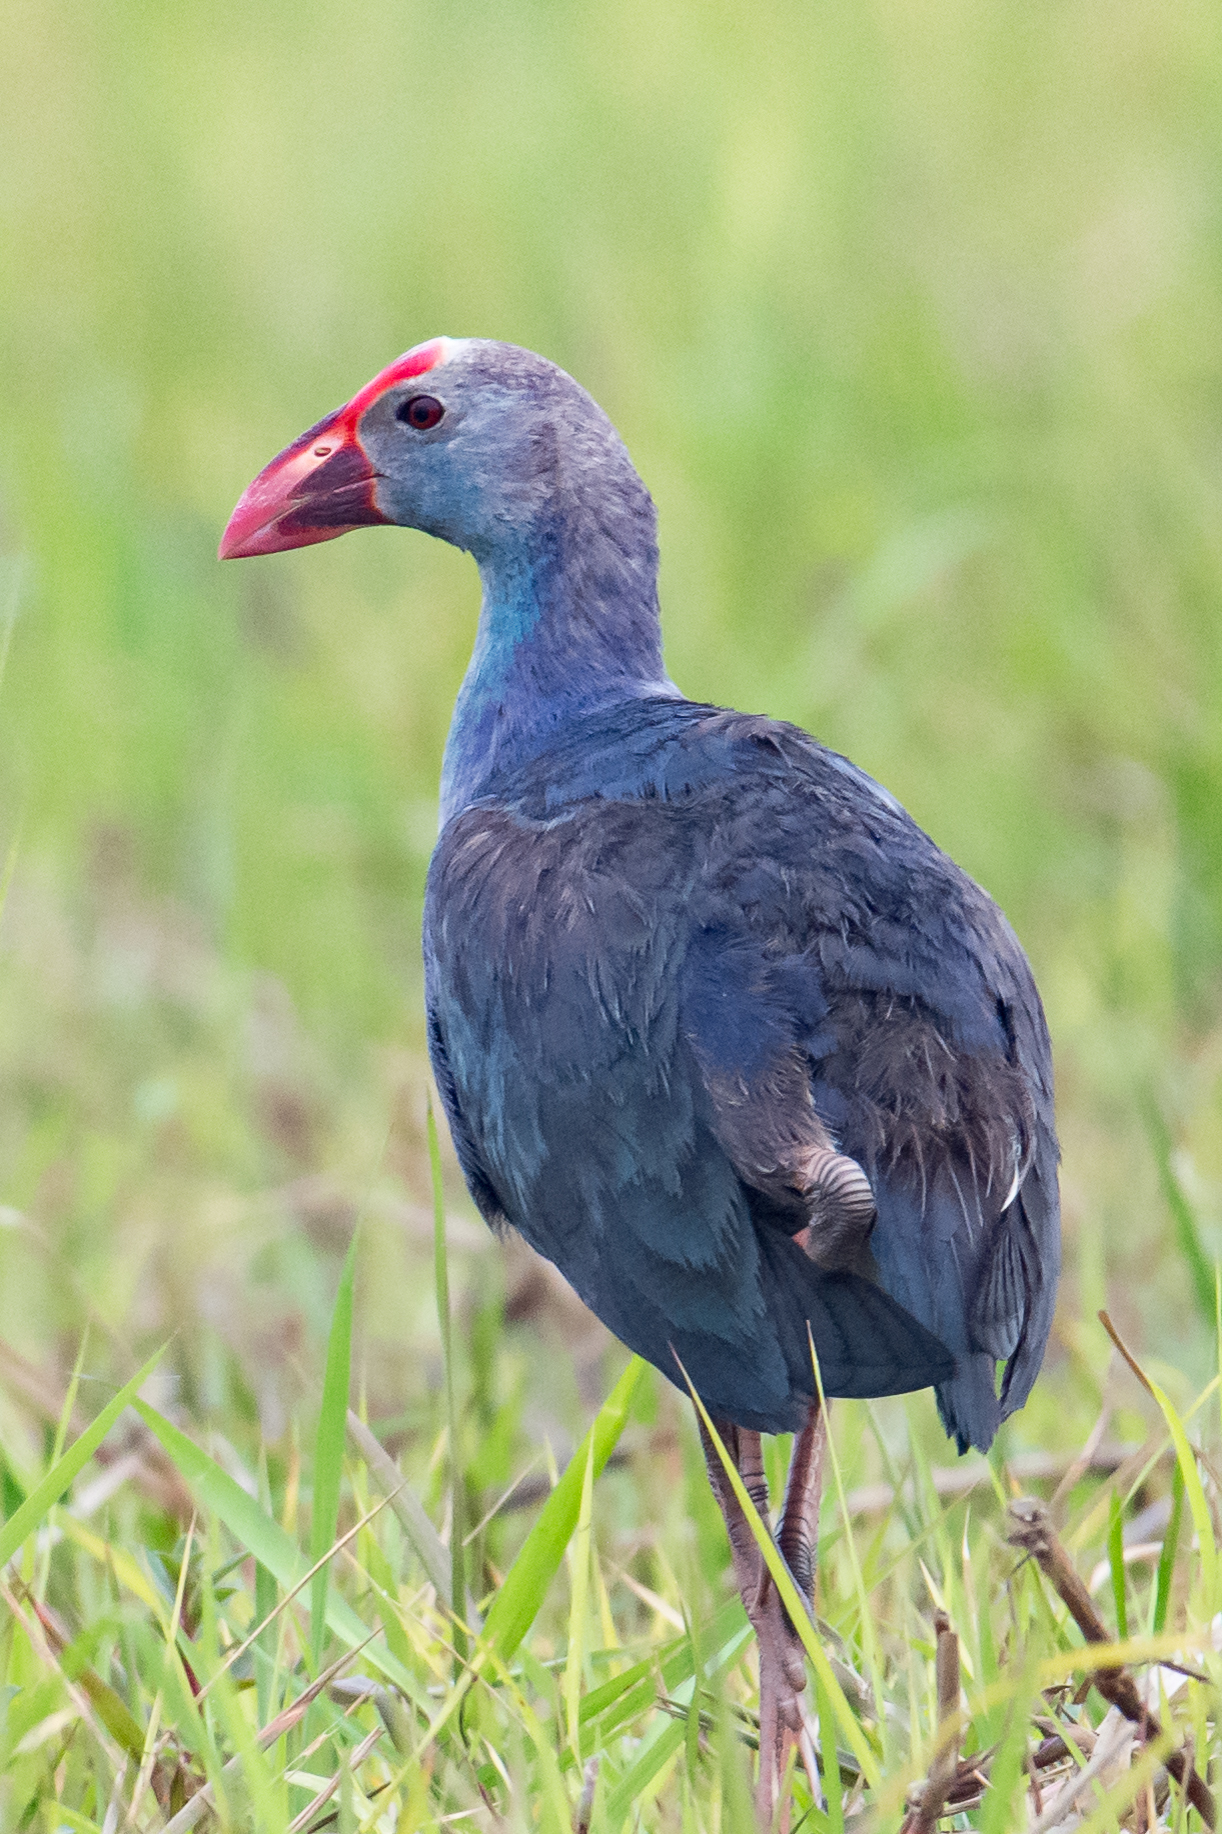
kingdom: Animalia
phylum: Chordata
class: Aves
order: Gruiformes
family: Rallidae
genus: Porphyrio
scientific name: Porphyrio porphyrio
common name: Purple swamphen
